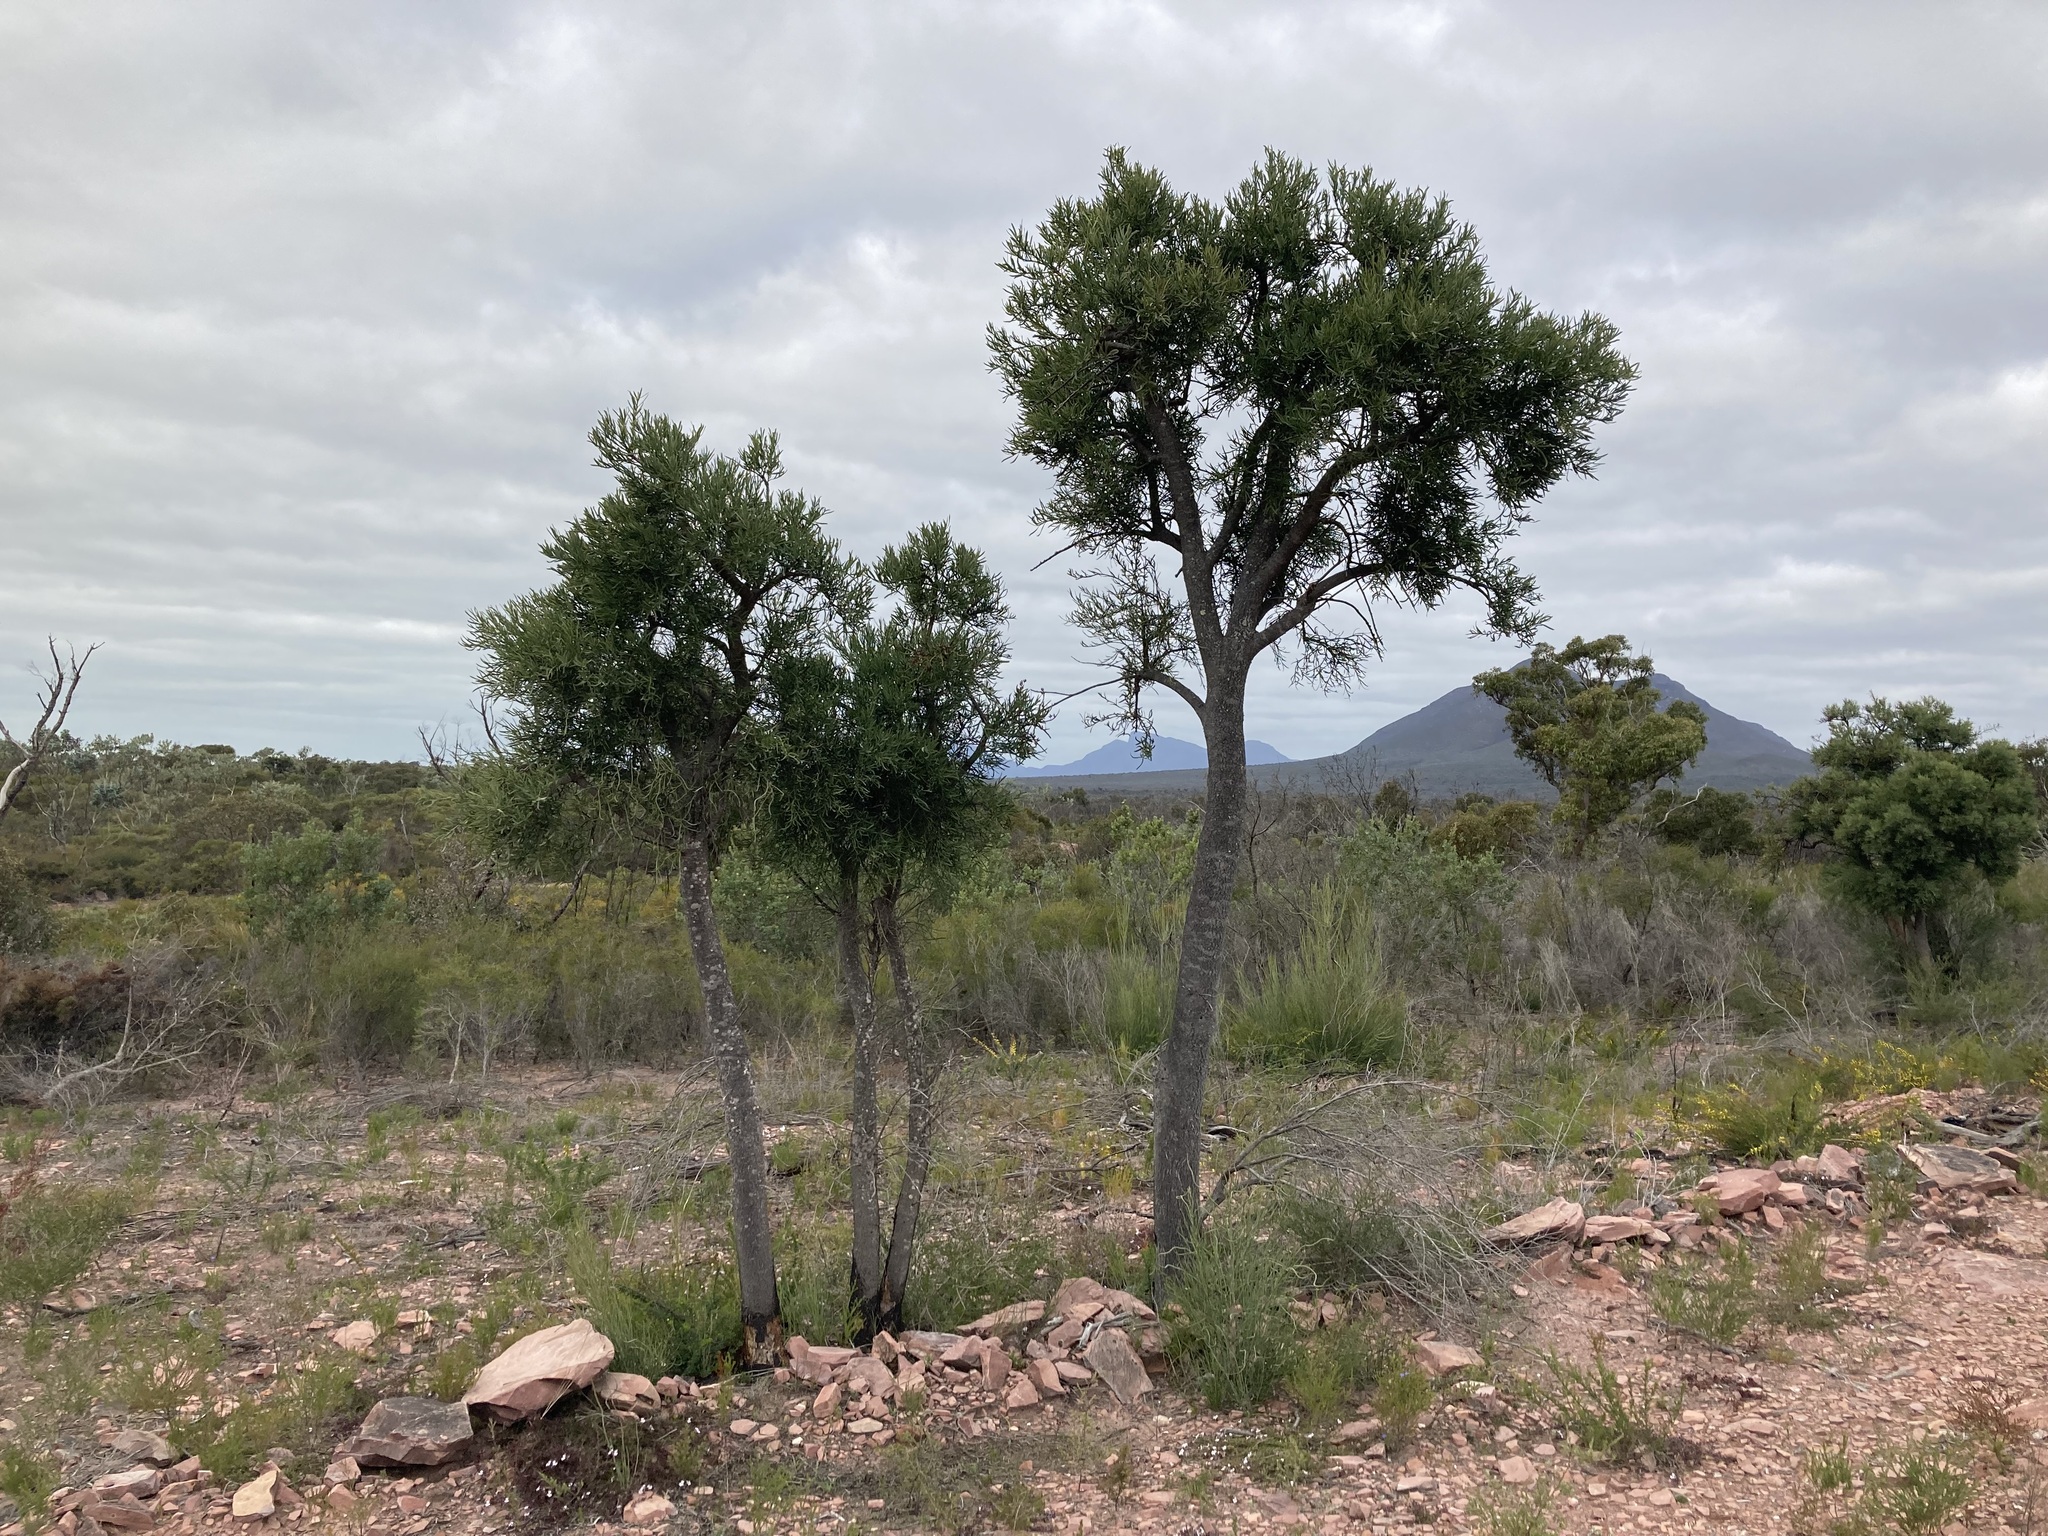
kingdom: Plantae
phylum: Tracheophyta
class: Magnoliopsida
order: Santalales
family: Loranthaceae
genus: Nuytsia
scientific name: Nuytsia floribunda
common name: Western australian christmastree
